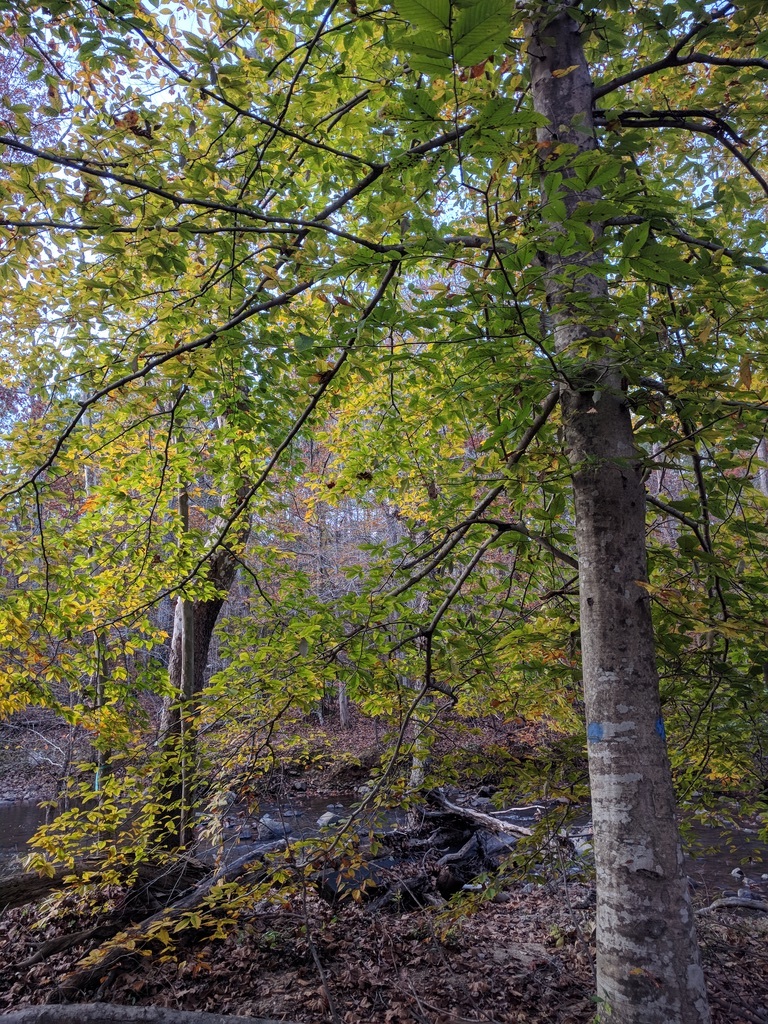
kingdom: Plantae
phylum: Tracheophyta
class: Magnoliopsida
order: Fagales
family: Fagaceae
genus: Fagus
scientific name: Fagus grandifolia
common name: American beech
